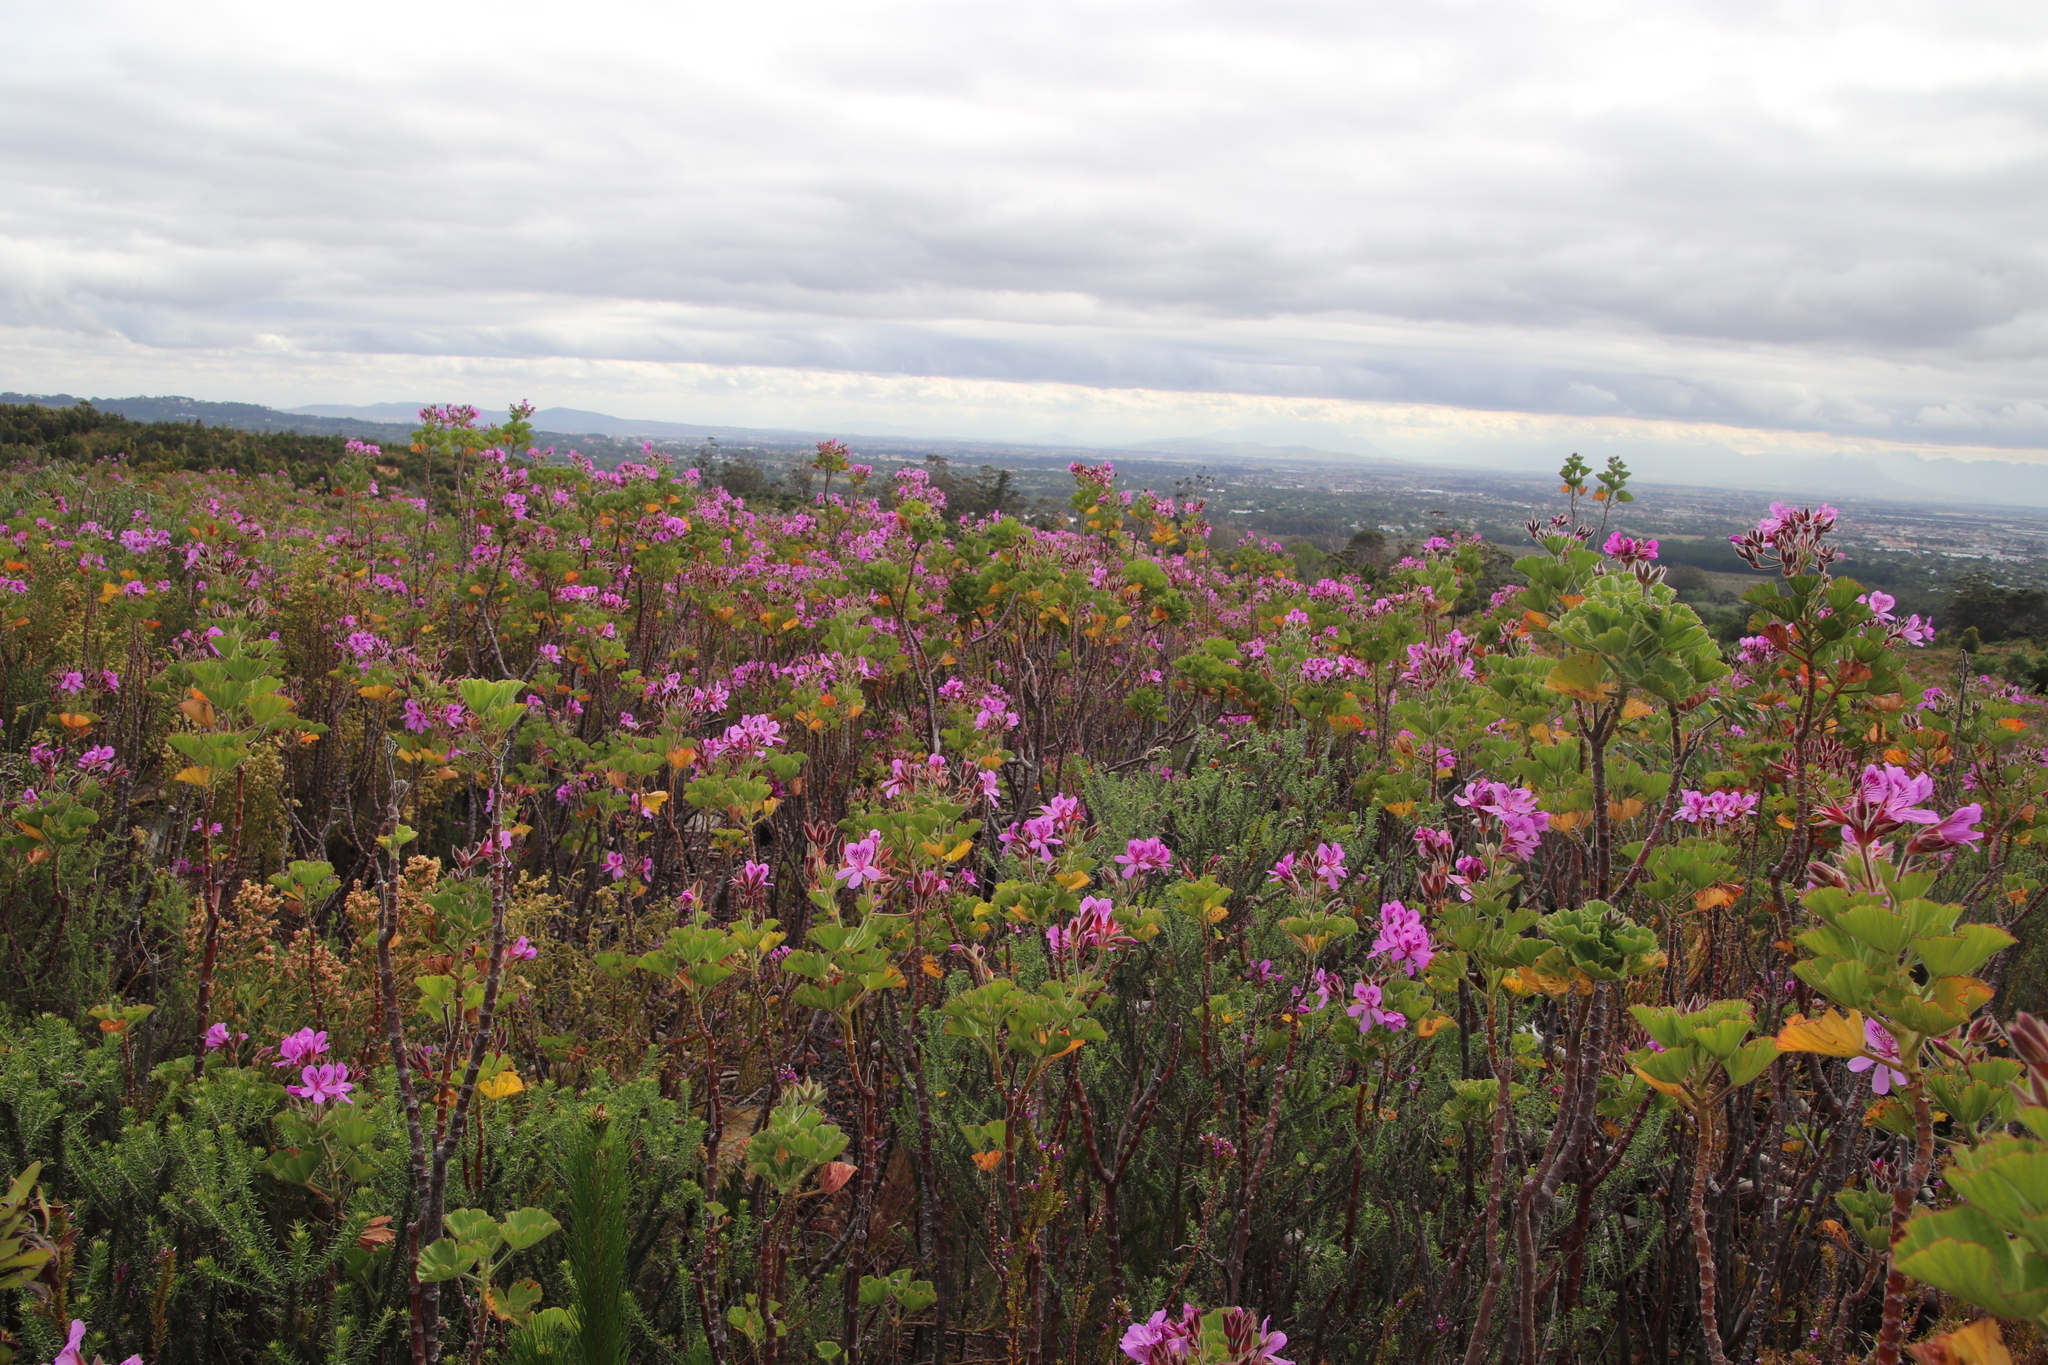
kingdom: Plantae
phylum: Tracheophyta
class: Magnoliopsida
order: Geraniales
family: Geraniaceae
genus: Pelargonium
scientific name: Pelargonium cucullatum
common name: Tree pelargonium
